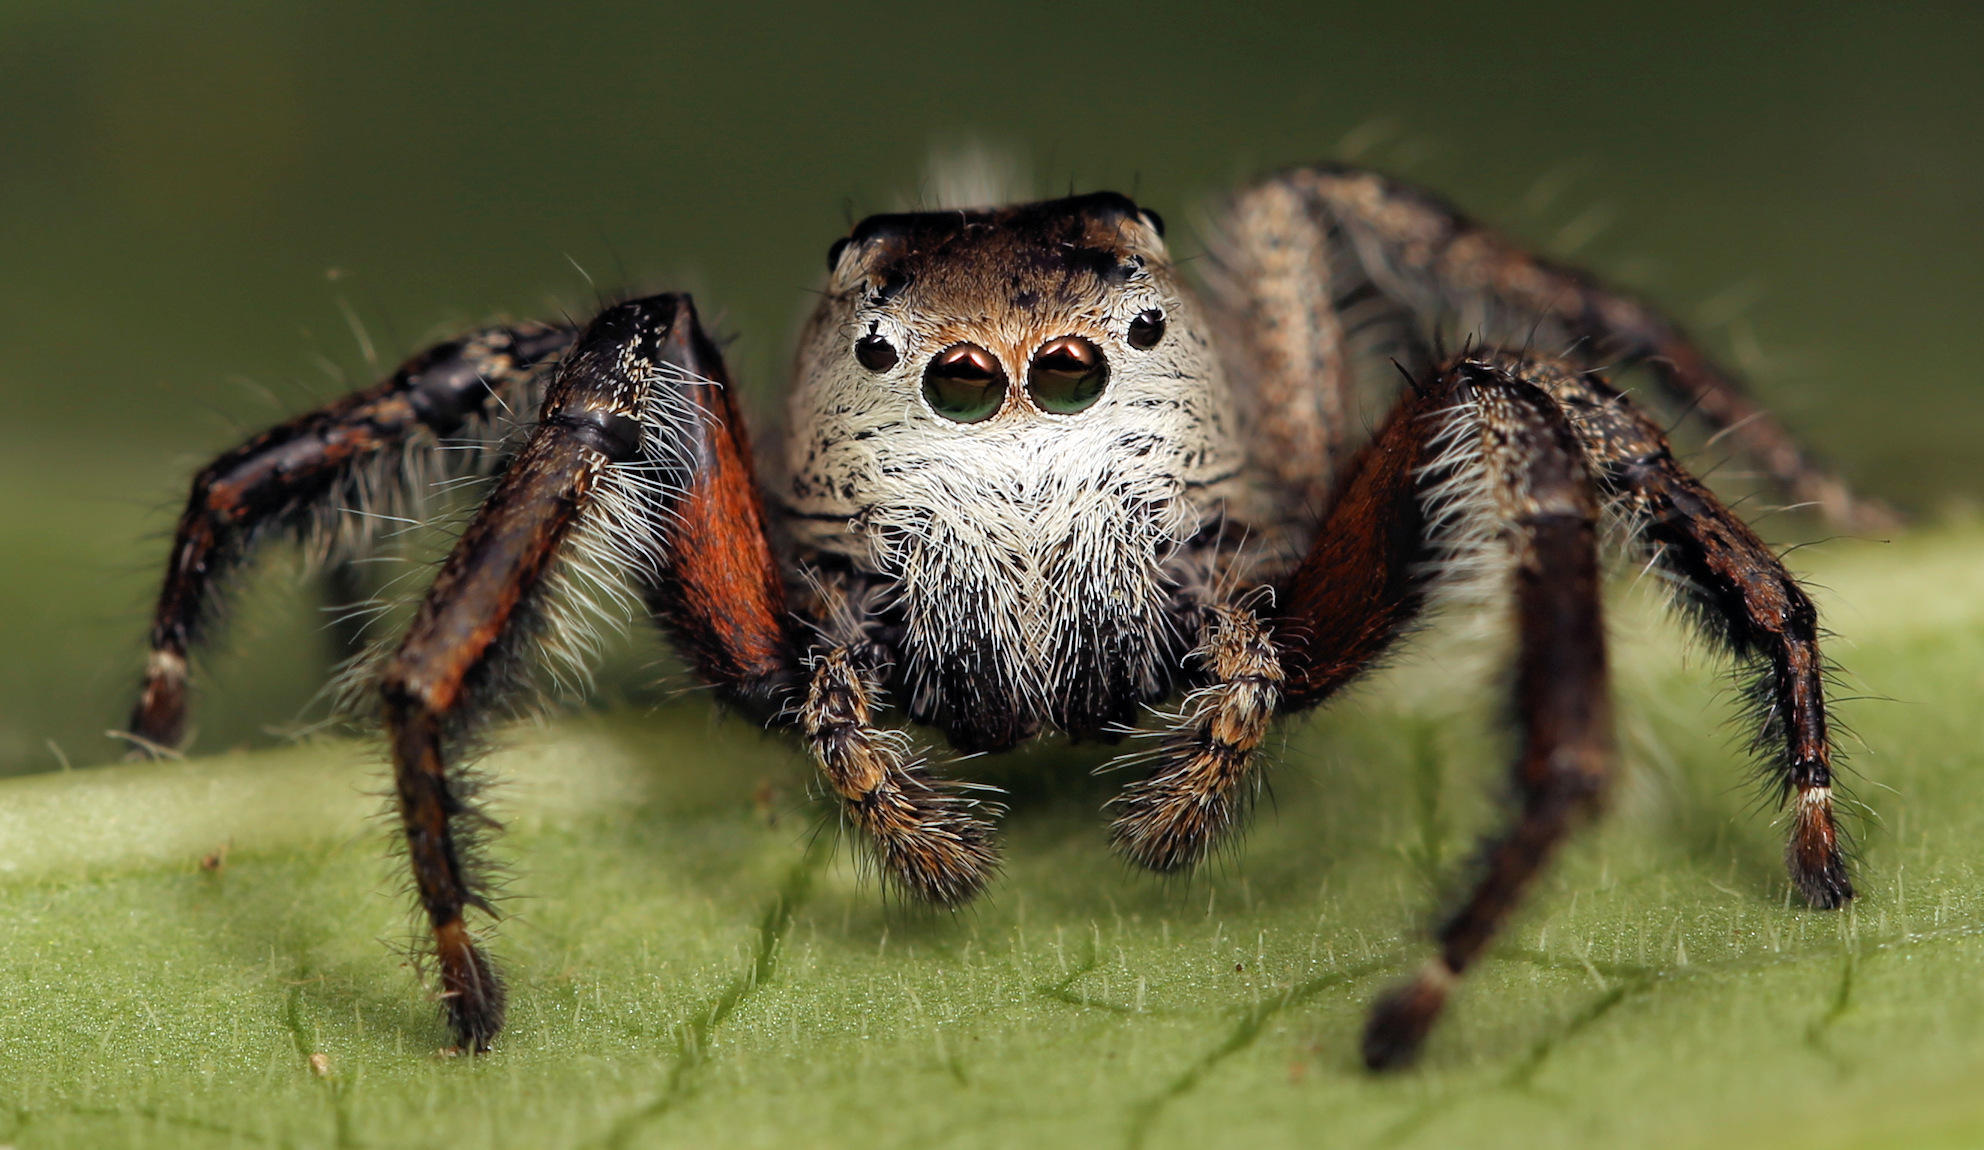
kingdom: Animalia
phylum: Arthropoda
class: Arachnida
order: Araneae
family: Salticidae
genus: Hyllus
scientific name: Hyllus brevitarsis
